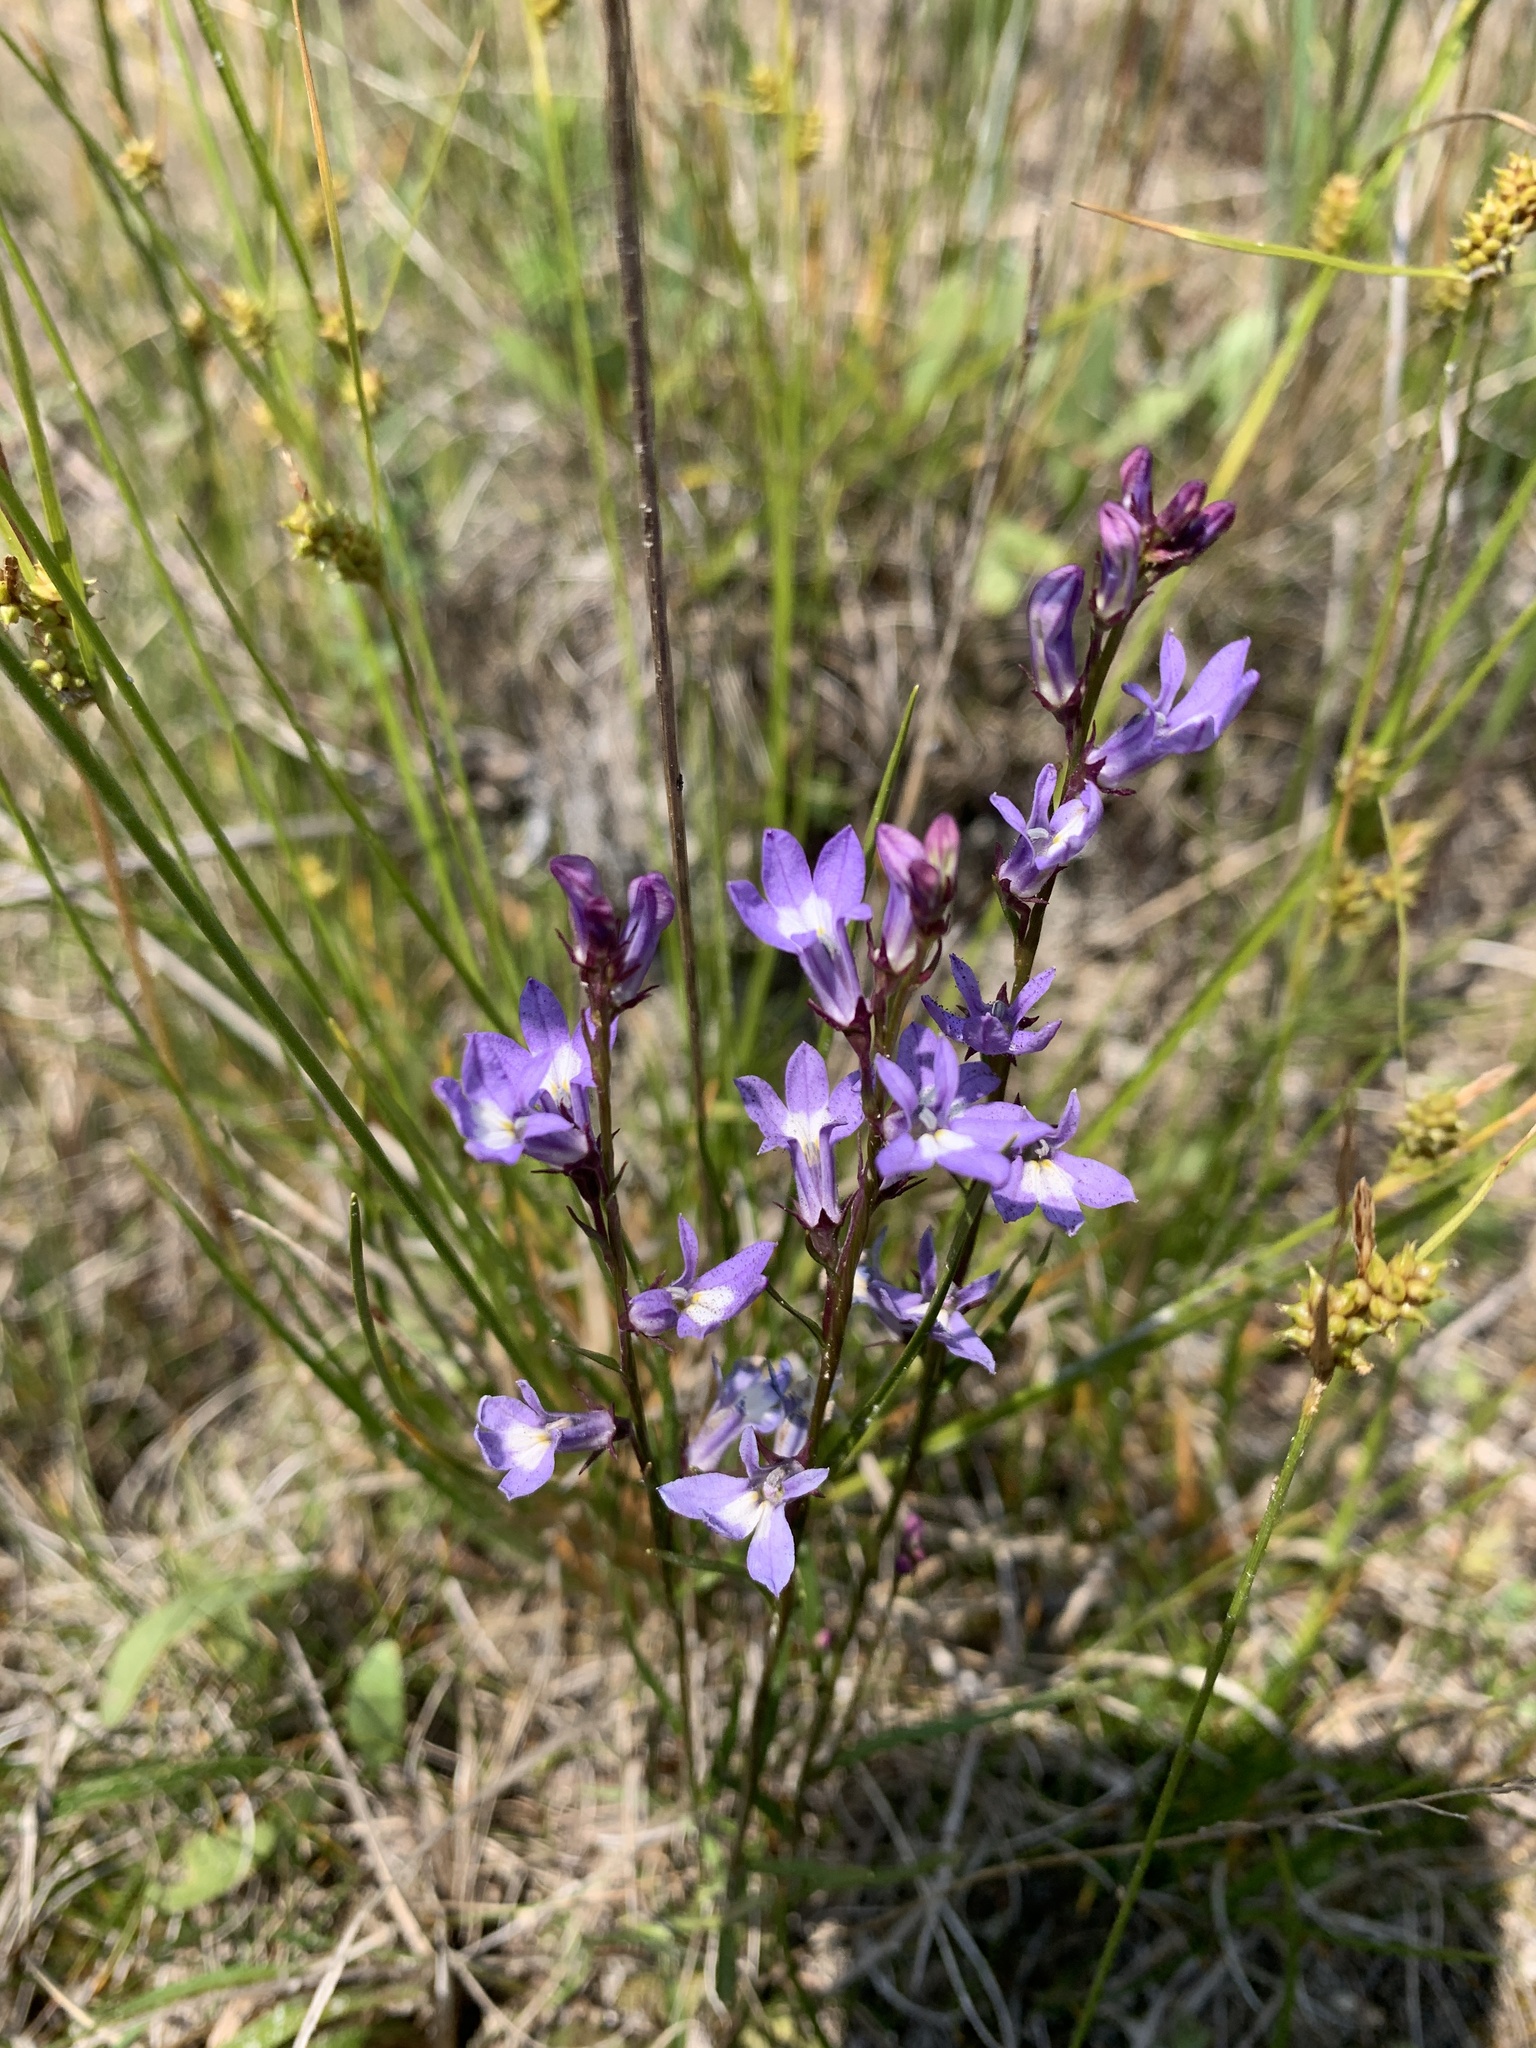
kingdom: Plantae
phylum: Tracheophyta
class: Magnoliopsida
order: Asterales
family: Campanulaceae
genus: Lobelia
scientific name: Lobelia kalmii
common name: Kalm's lobelia
